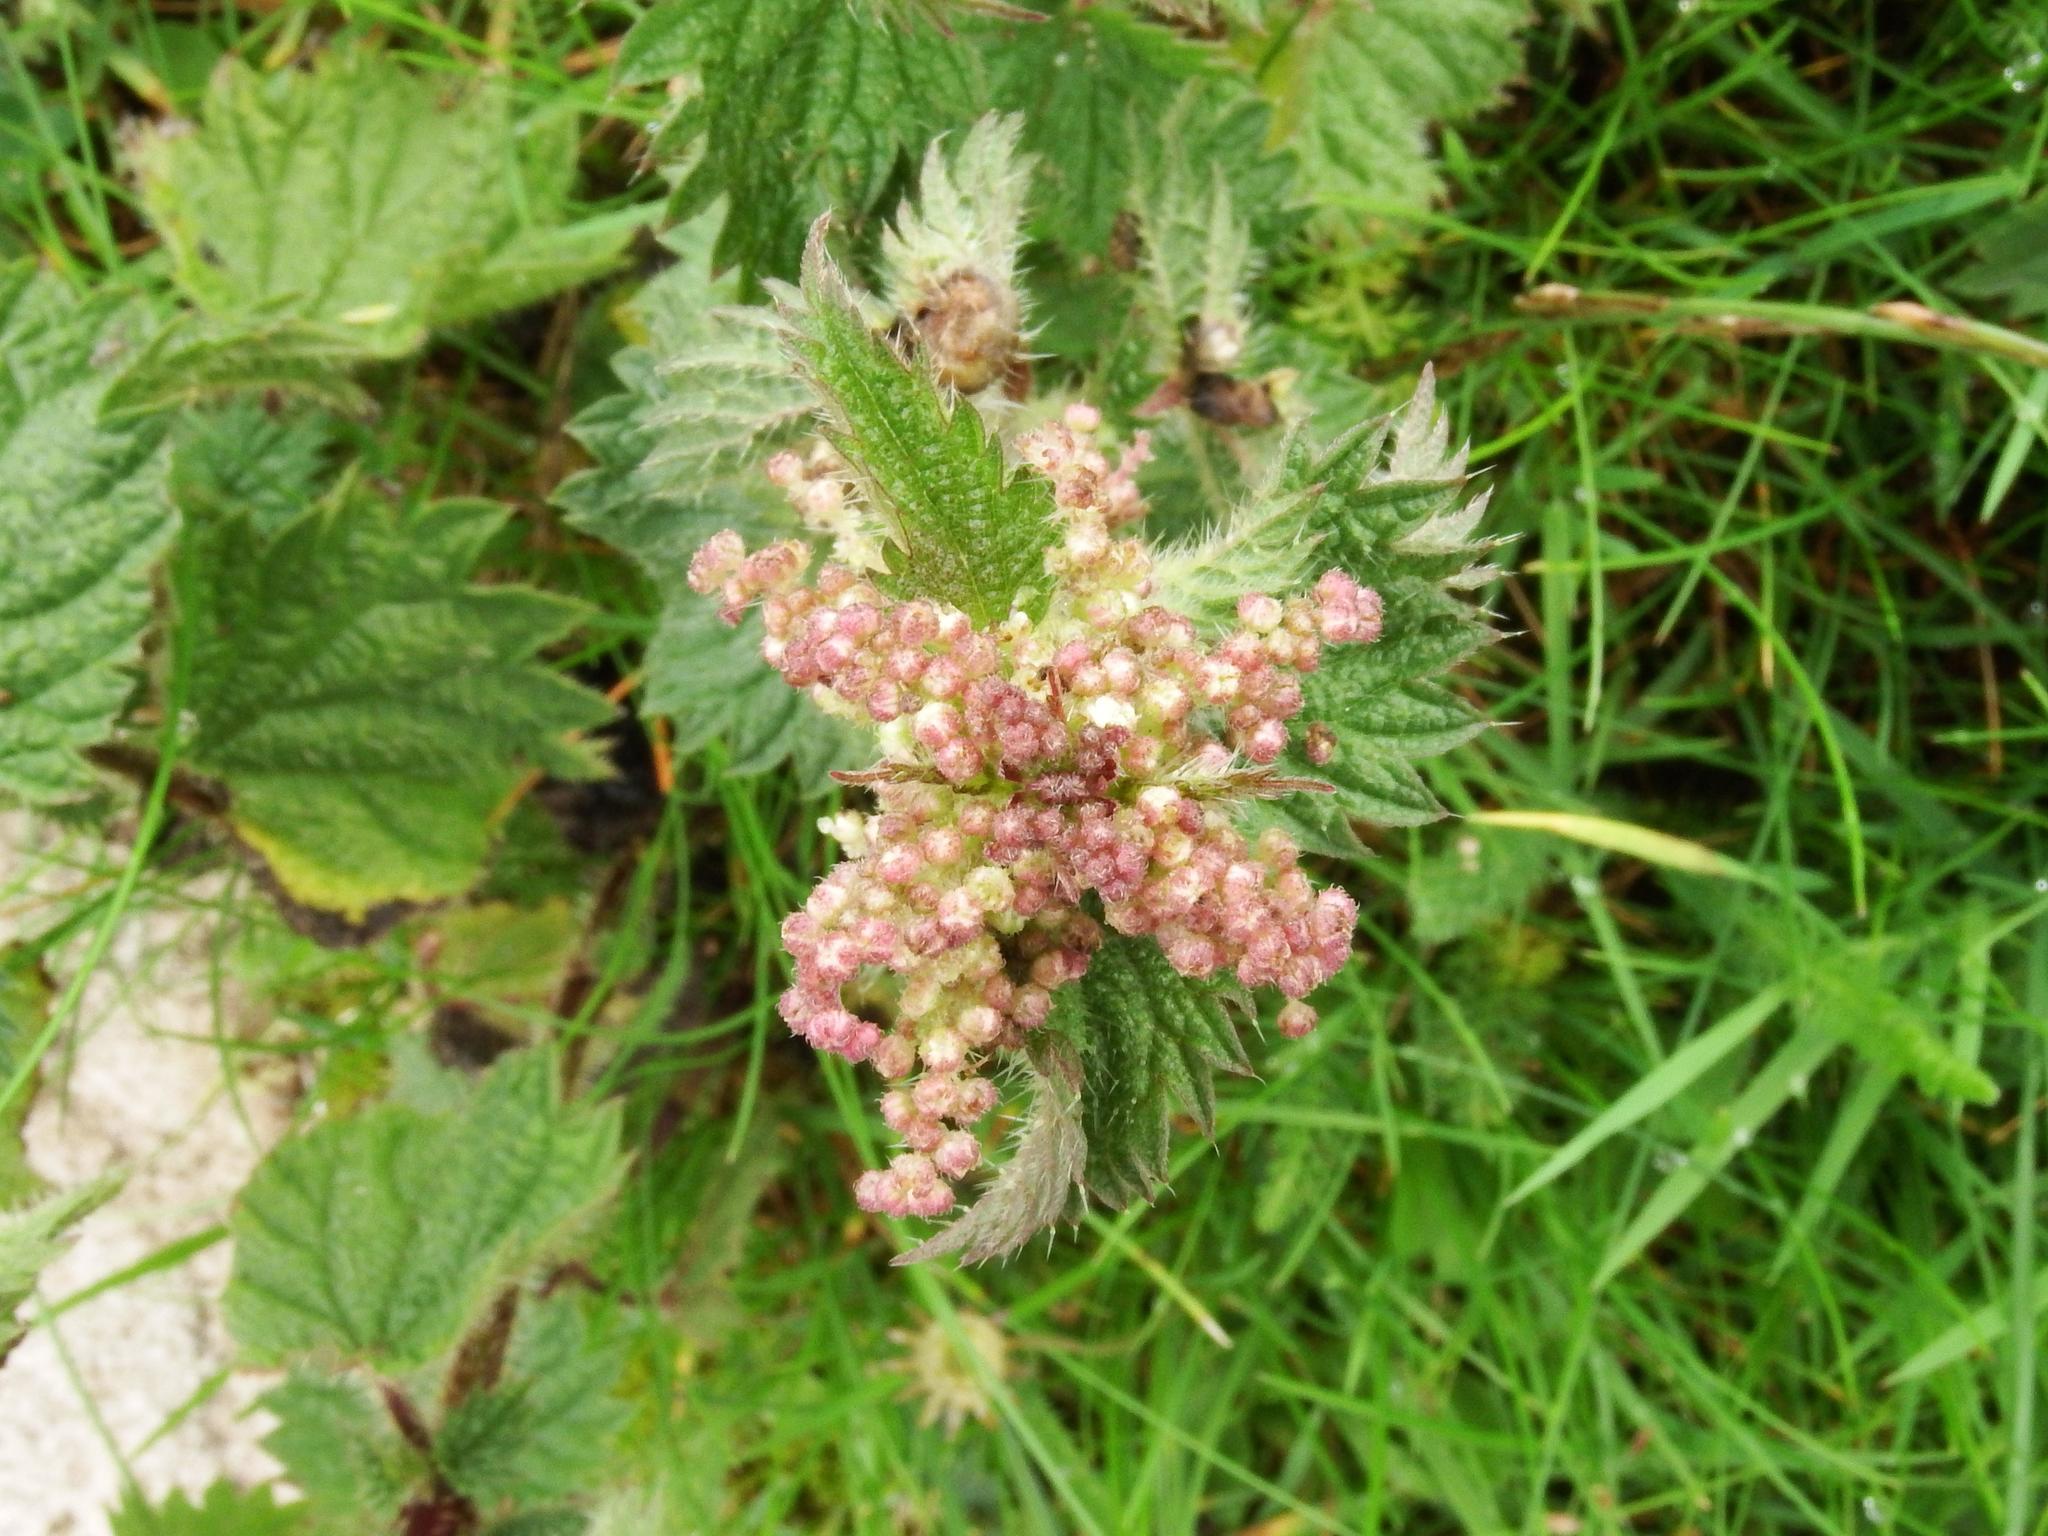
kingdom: Plantae
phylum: Tracheophyta
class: Magnoliopsida
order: Rosales
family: Urticaceae
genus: Urtica
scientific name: Urtica dioica
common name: Common nettle
